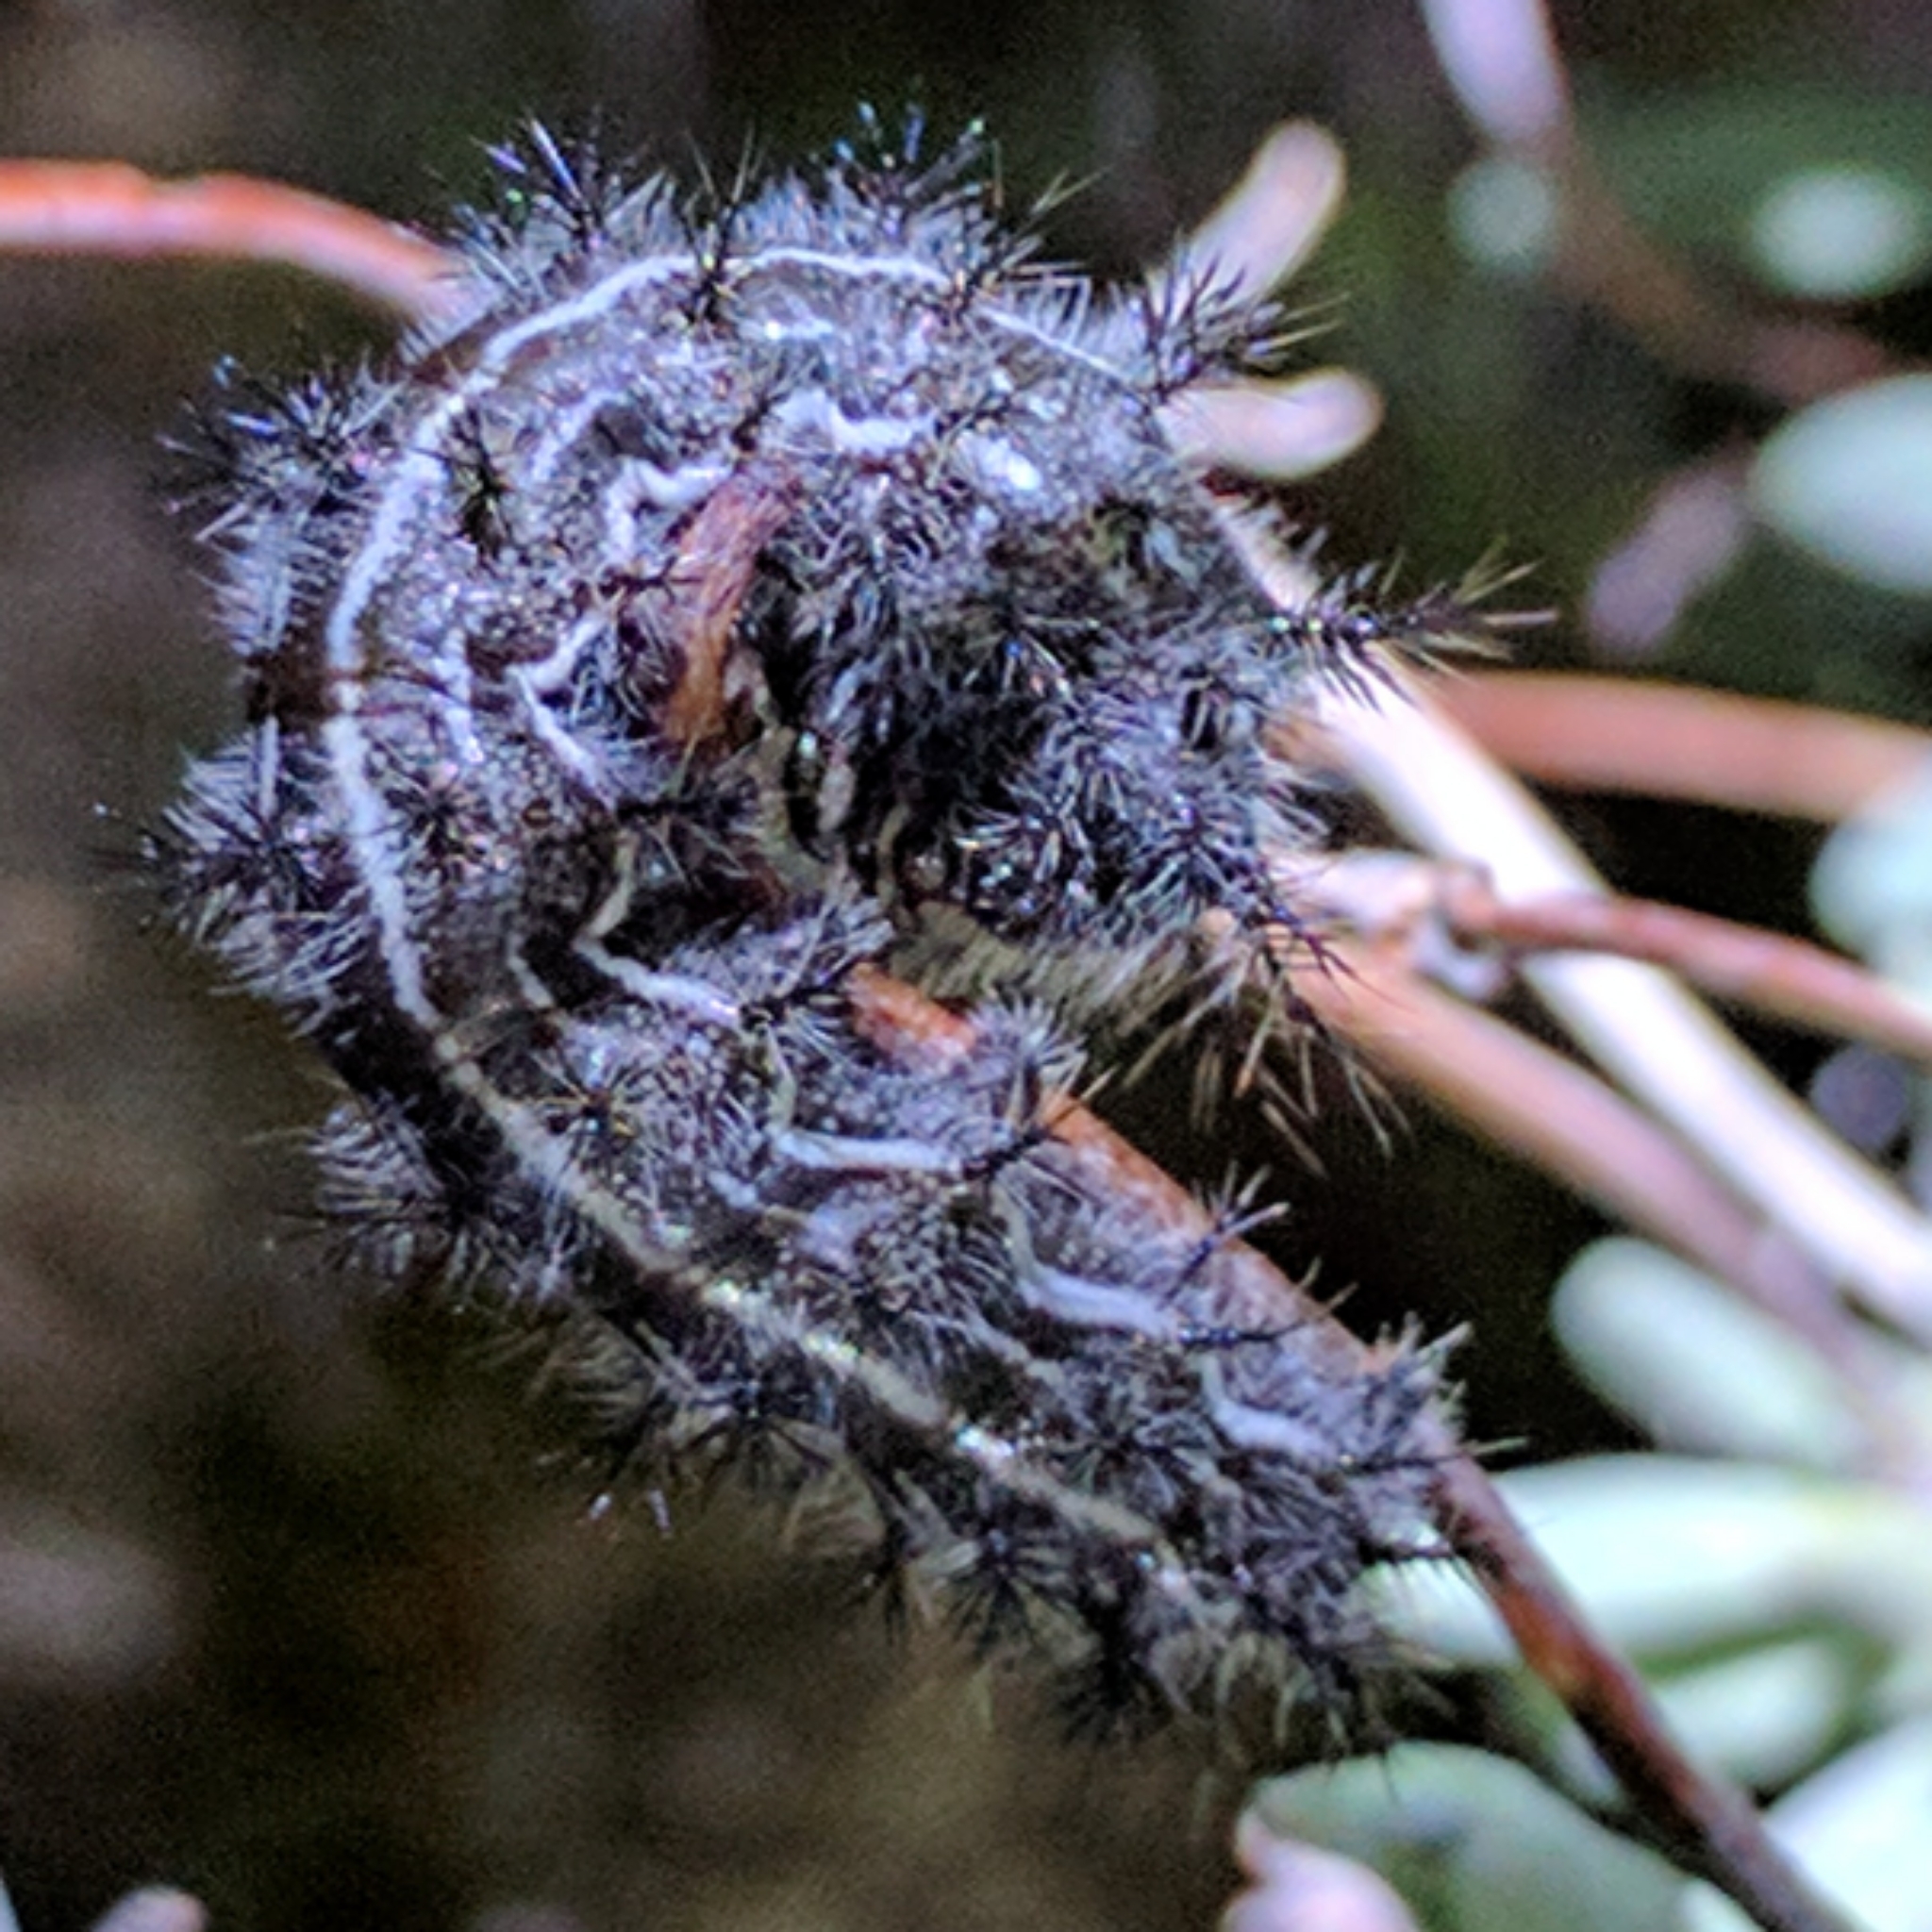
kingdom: Animalia
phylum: Arthropoda
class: Insecta
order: Lepidoptera
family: Saturniidae
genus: Hemileuca
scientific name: Hemileuca electra
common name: Electra buckmoth
